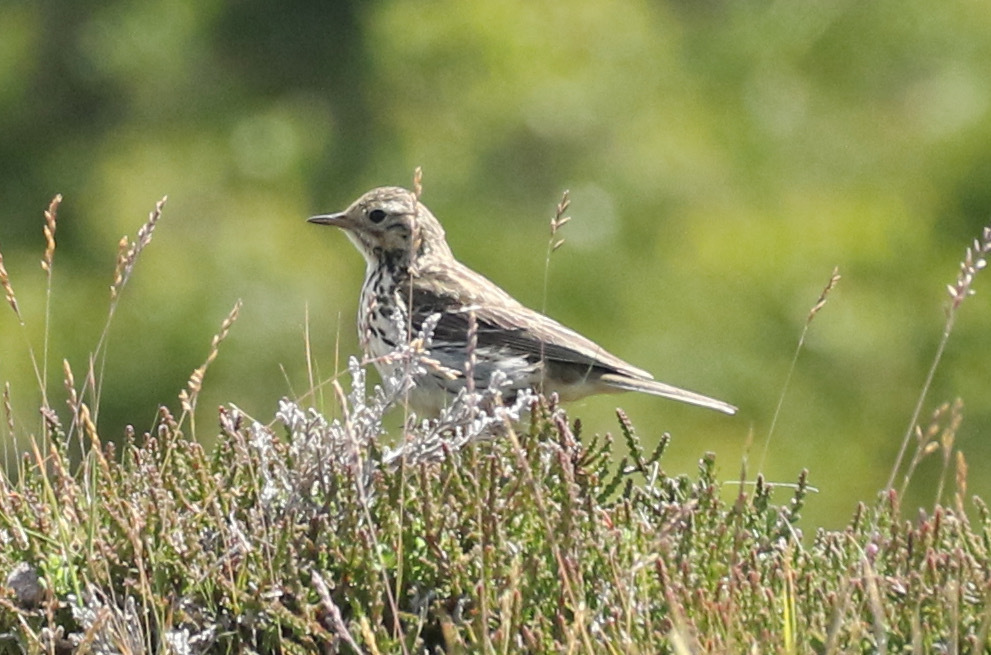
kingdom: Animalia
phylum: Chordata
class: Aves
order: Passeriformes
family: Motacillidae
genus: Anthus
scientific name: Anthus pratensis
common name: Meadow pipit
